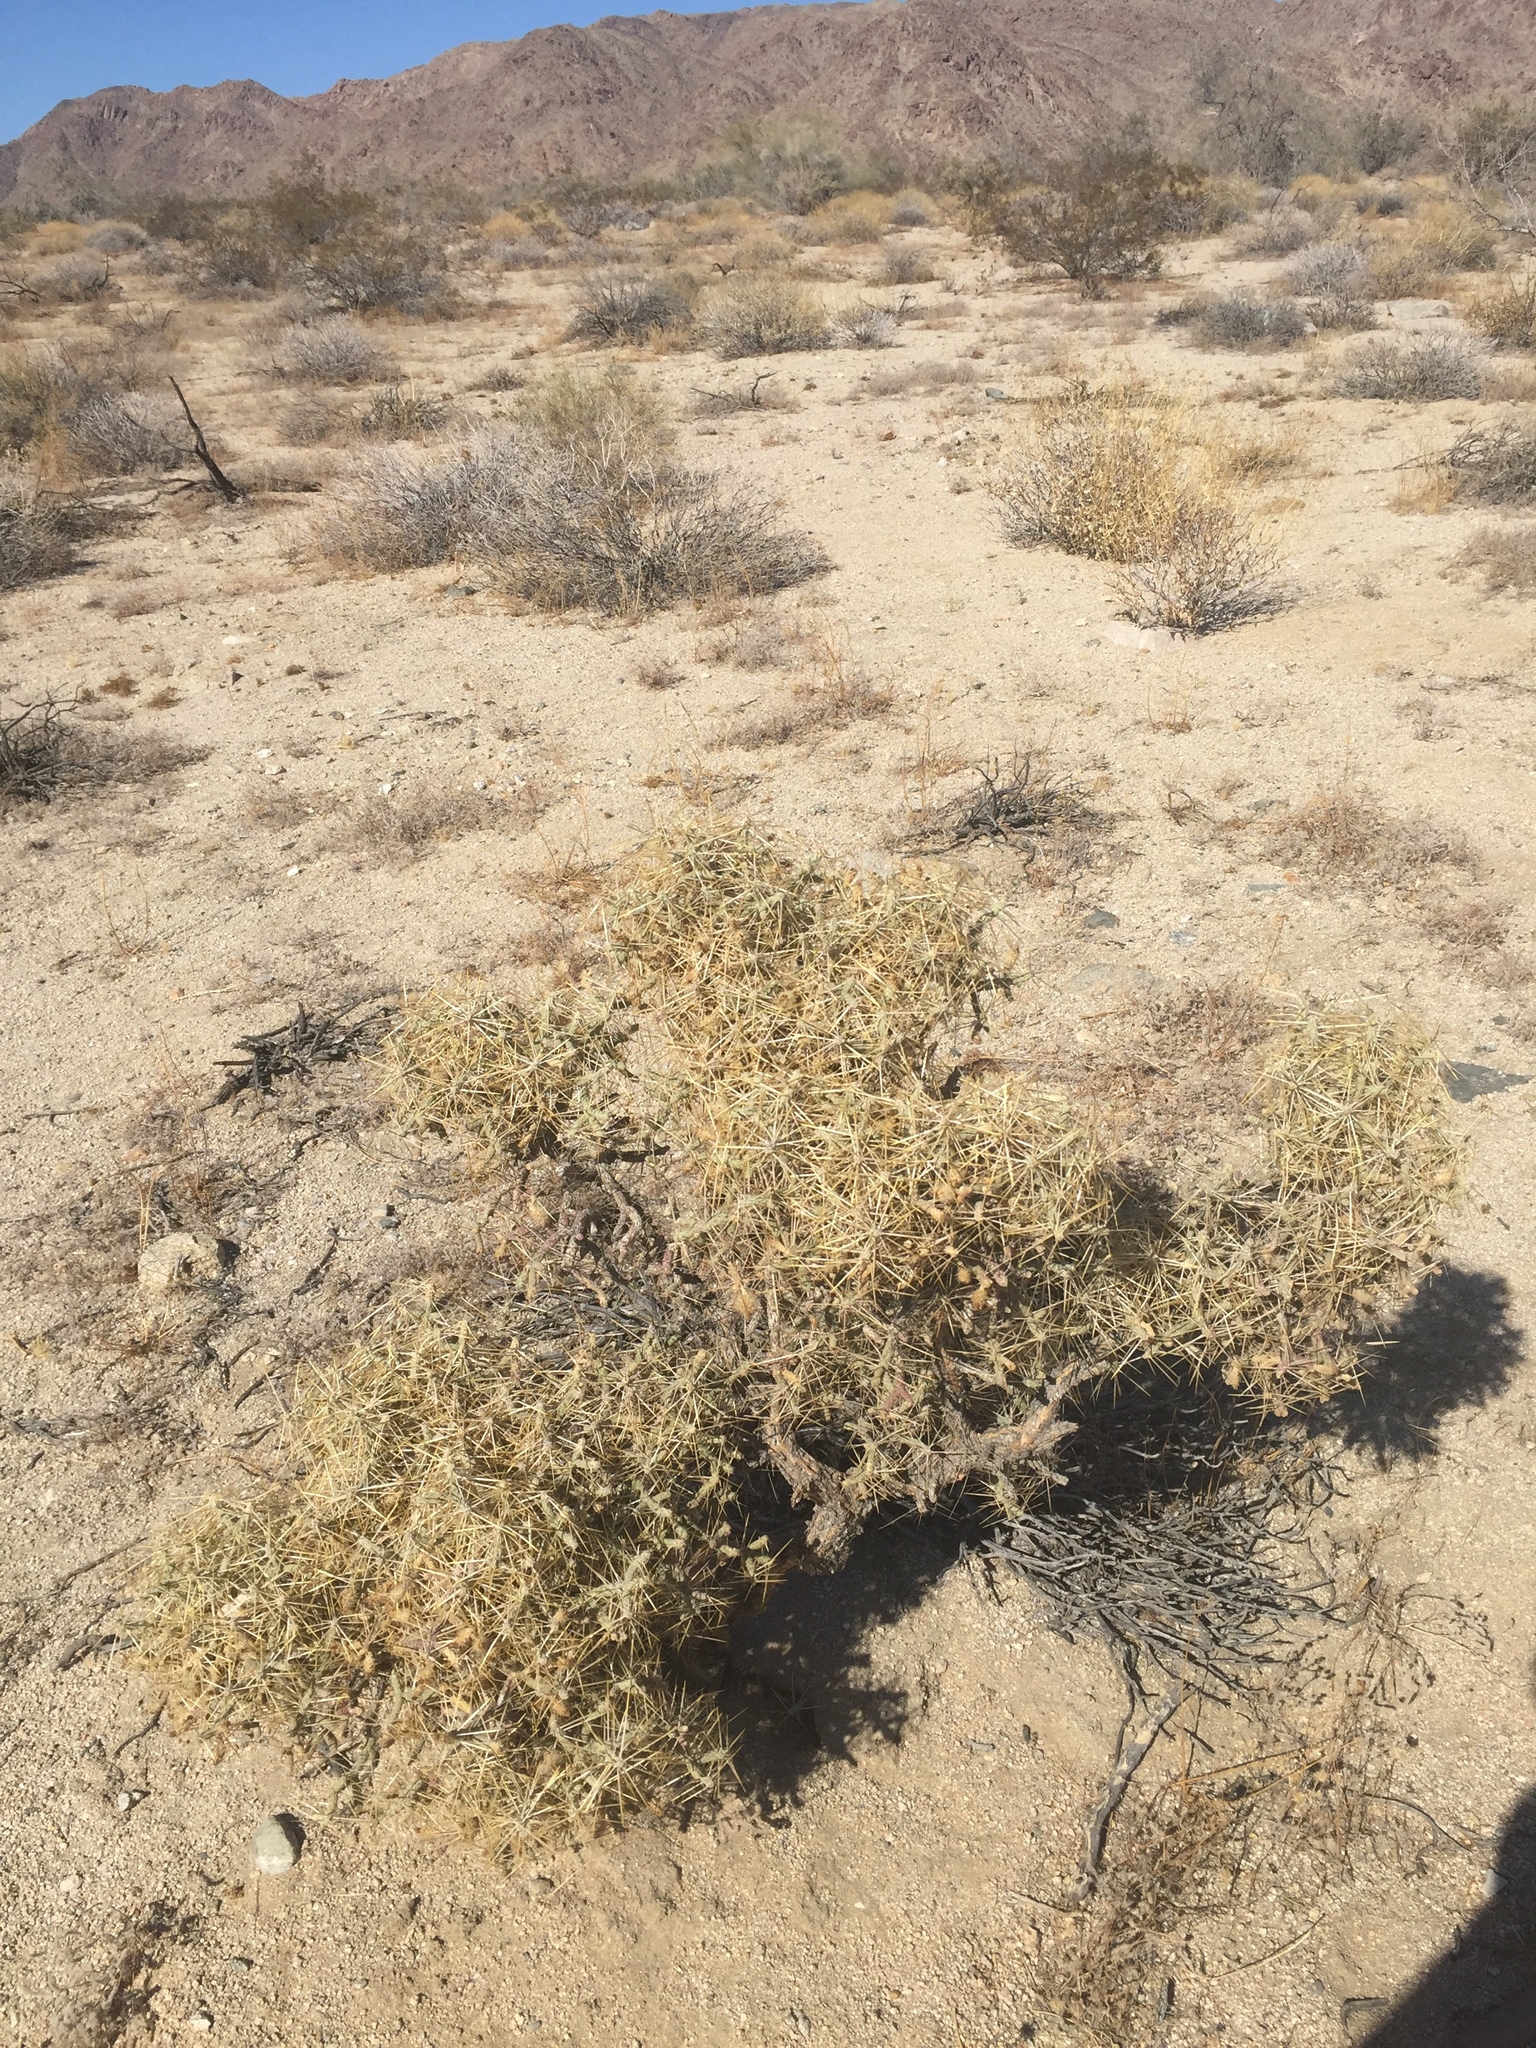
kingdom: Plantae
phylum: Tracheophyta
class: Magnoliopsida
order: Caryophyllales
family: Cactaceae
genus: Cylindropuntia
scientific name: Cylindropuntia ramosissima
